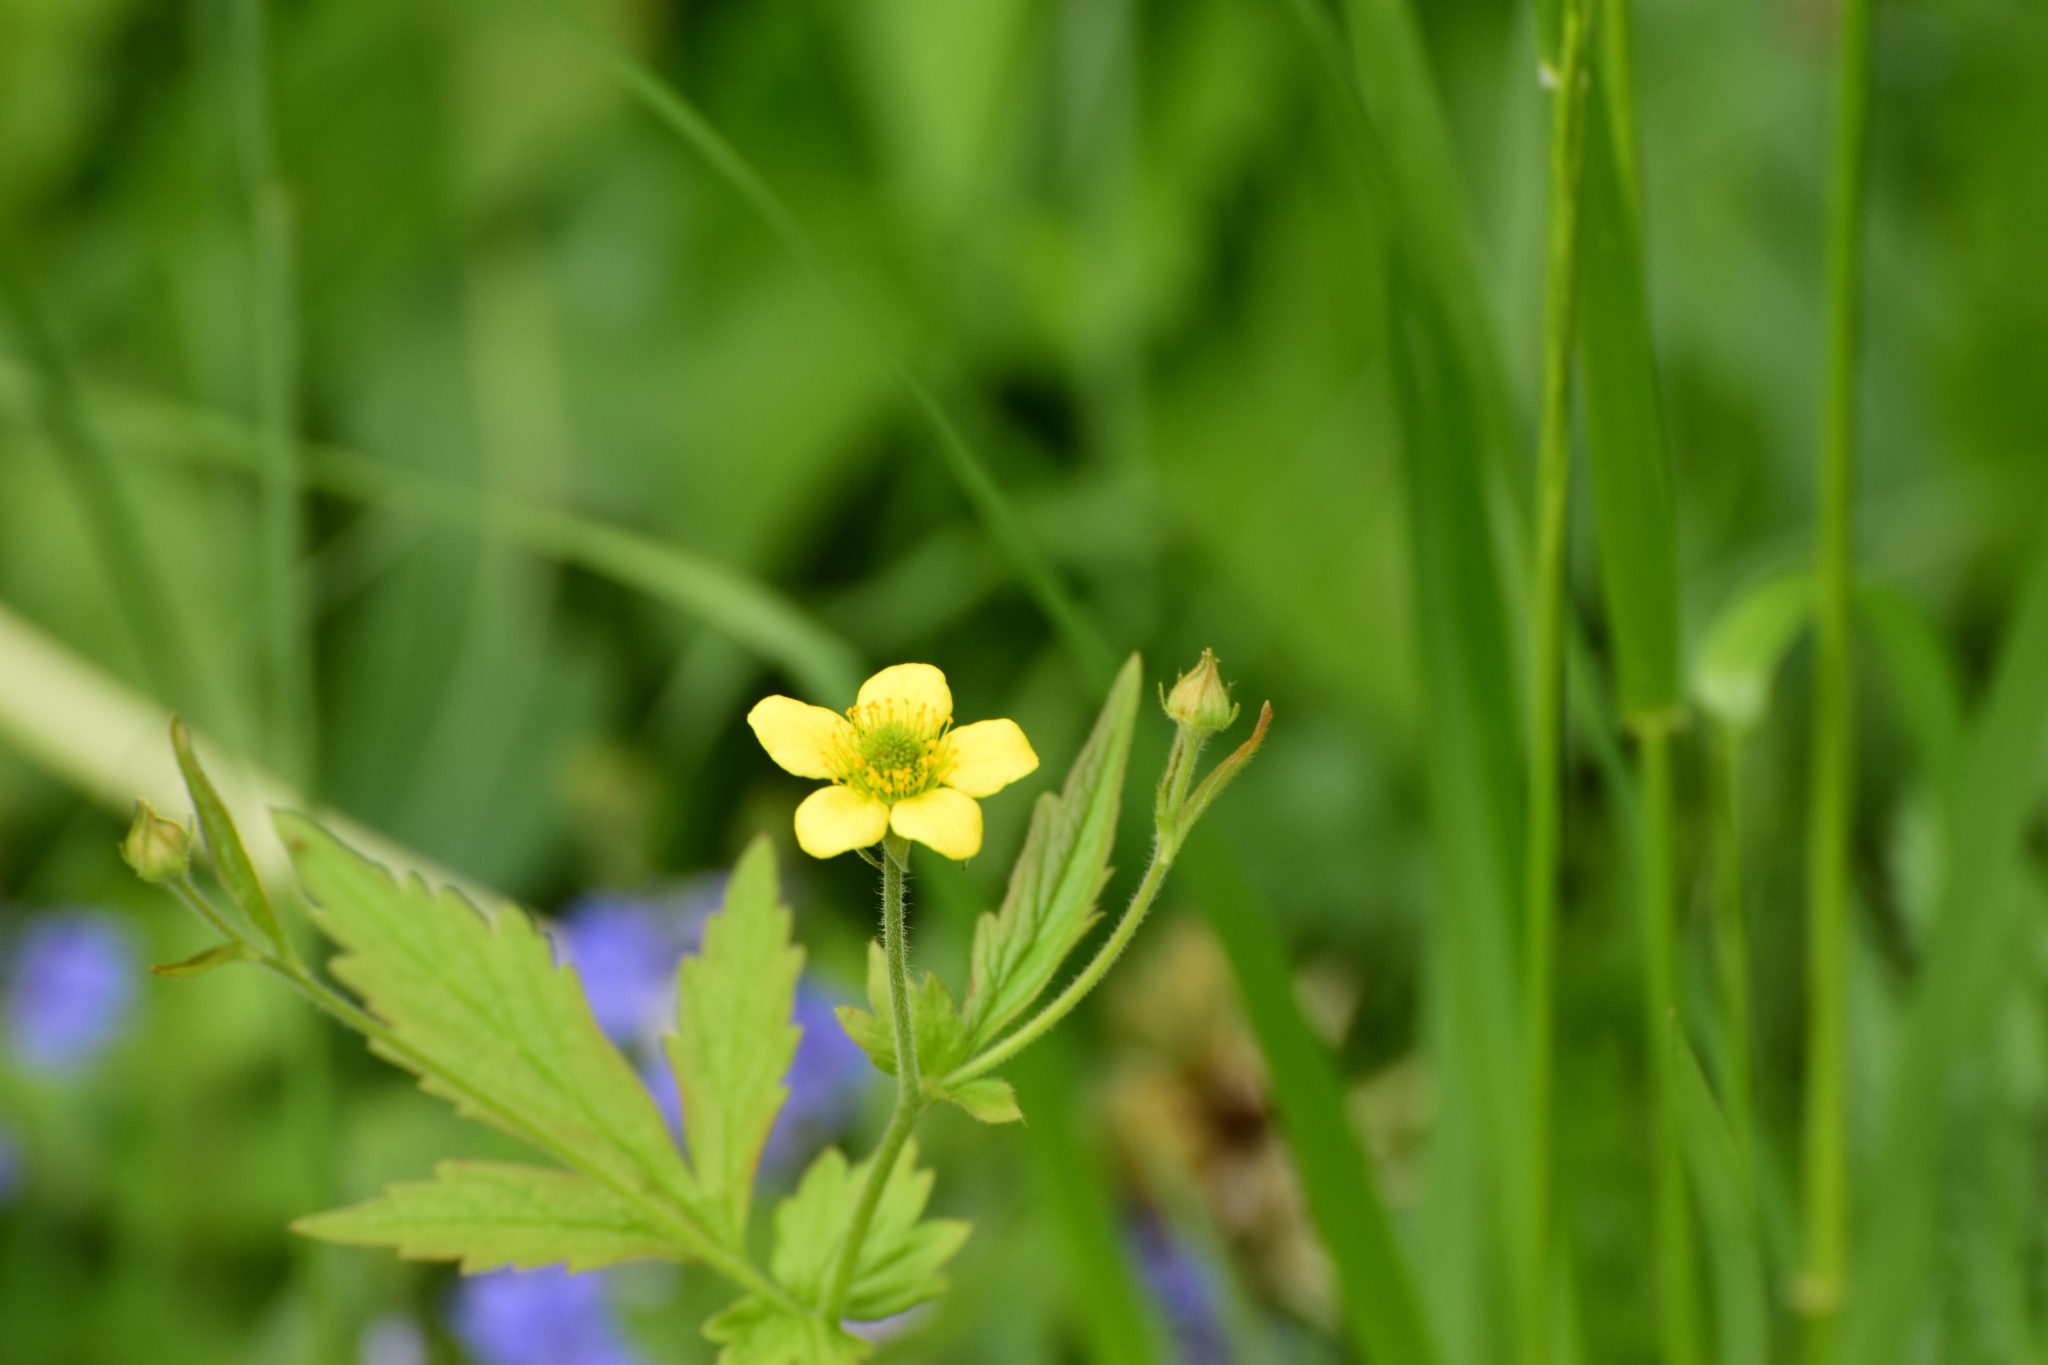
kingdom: Plantae
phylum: Tracheophyta
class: Magnoliopsida
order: Rosales
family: Rosaceae
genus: Geum
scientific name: Geum urbanum
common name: Wood avens
